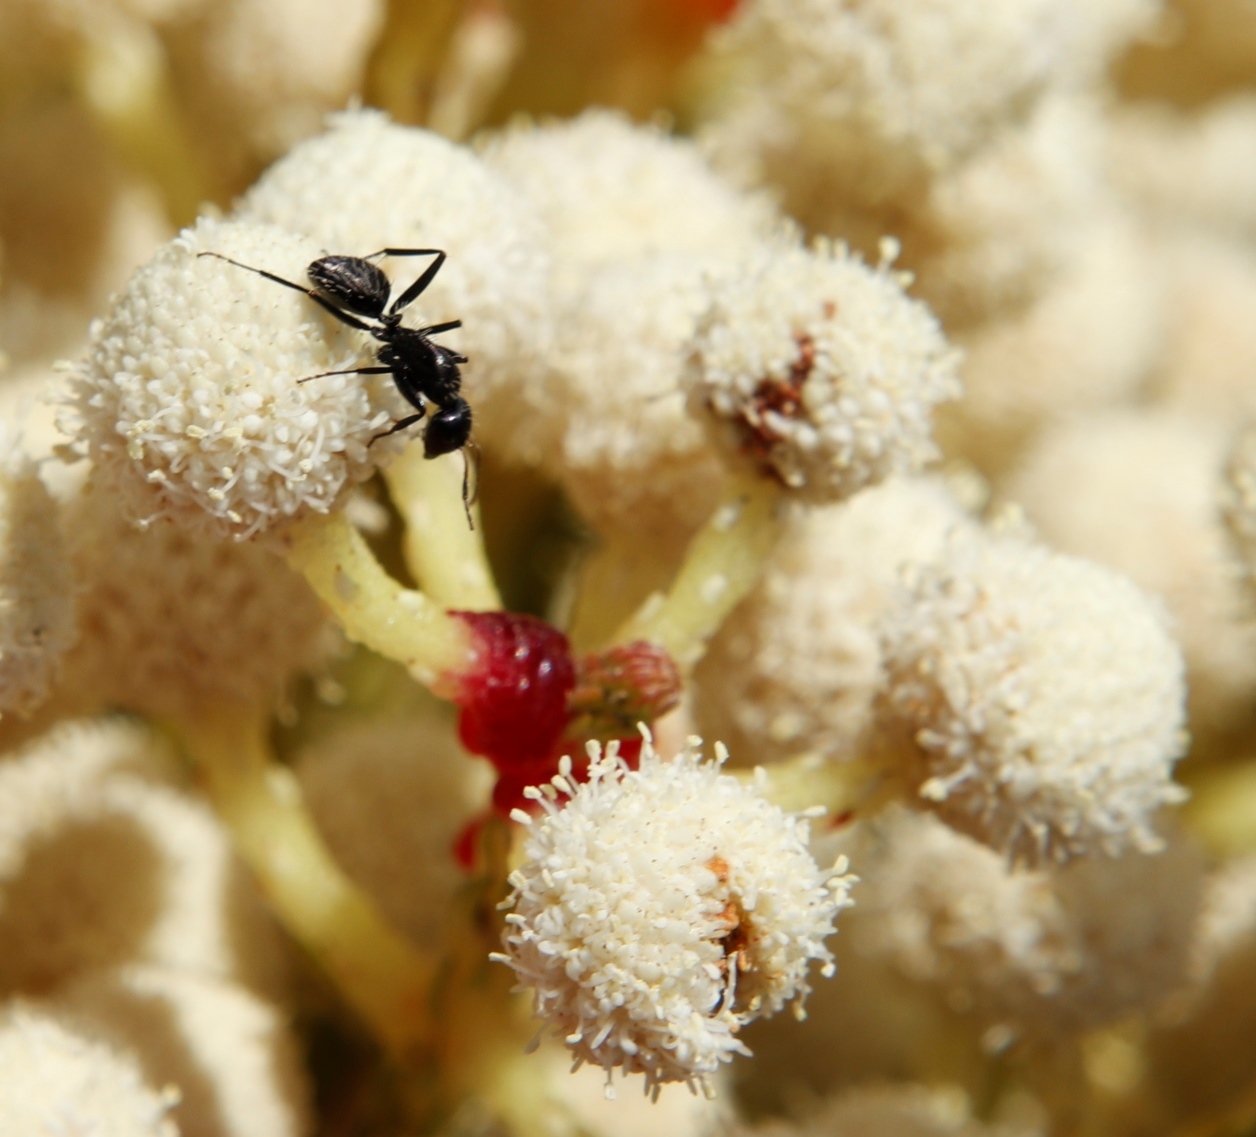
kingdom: Animalia
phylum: Arthropoda
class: Insecta
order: Hymenoptera
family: Formicidae
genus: Camponotus
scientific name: Camponotus niveosetosus
